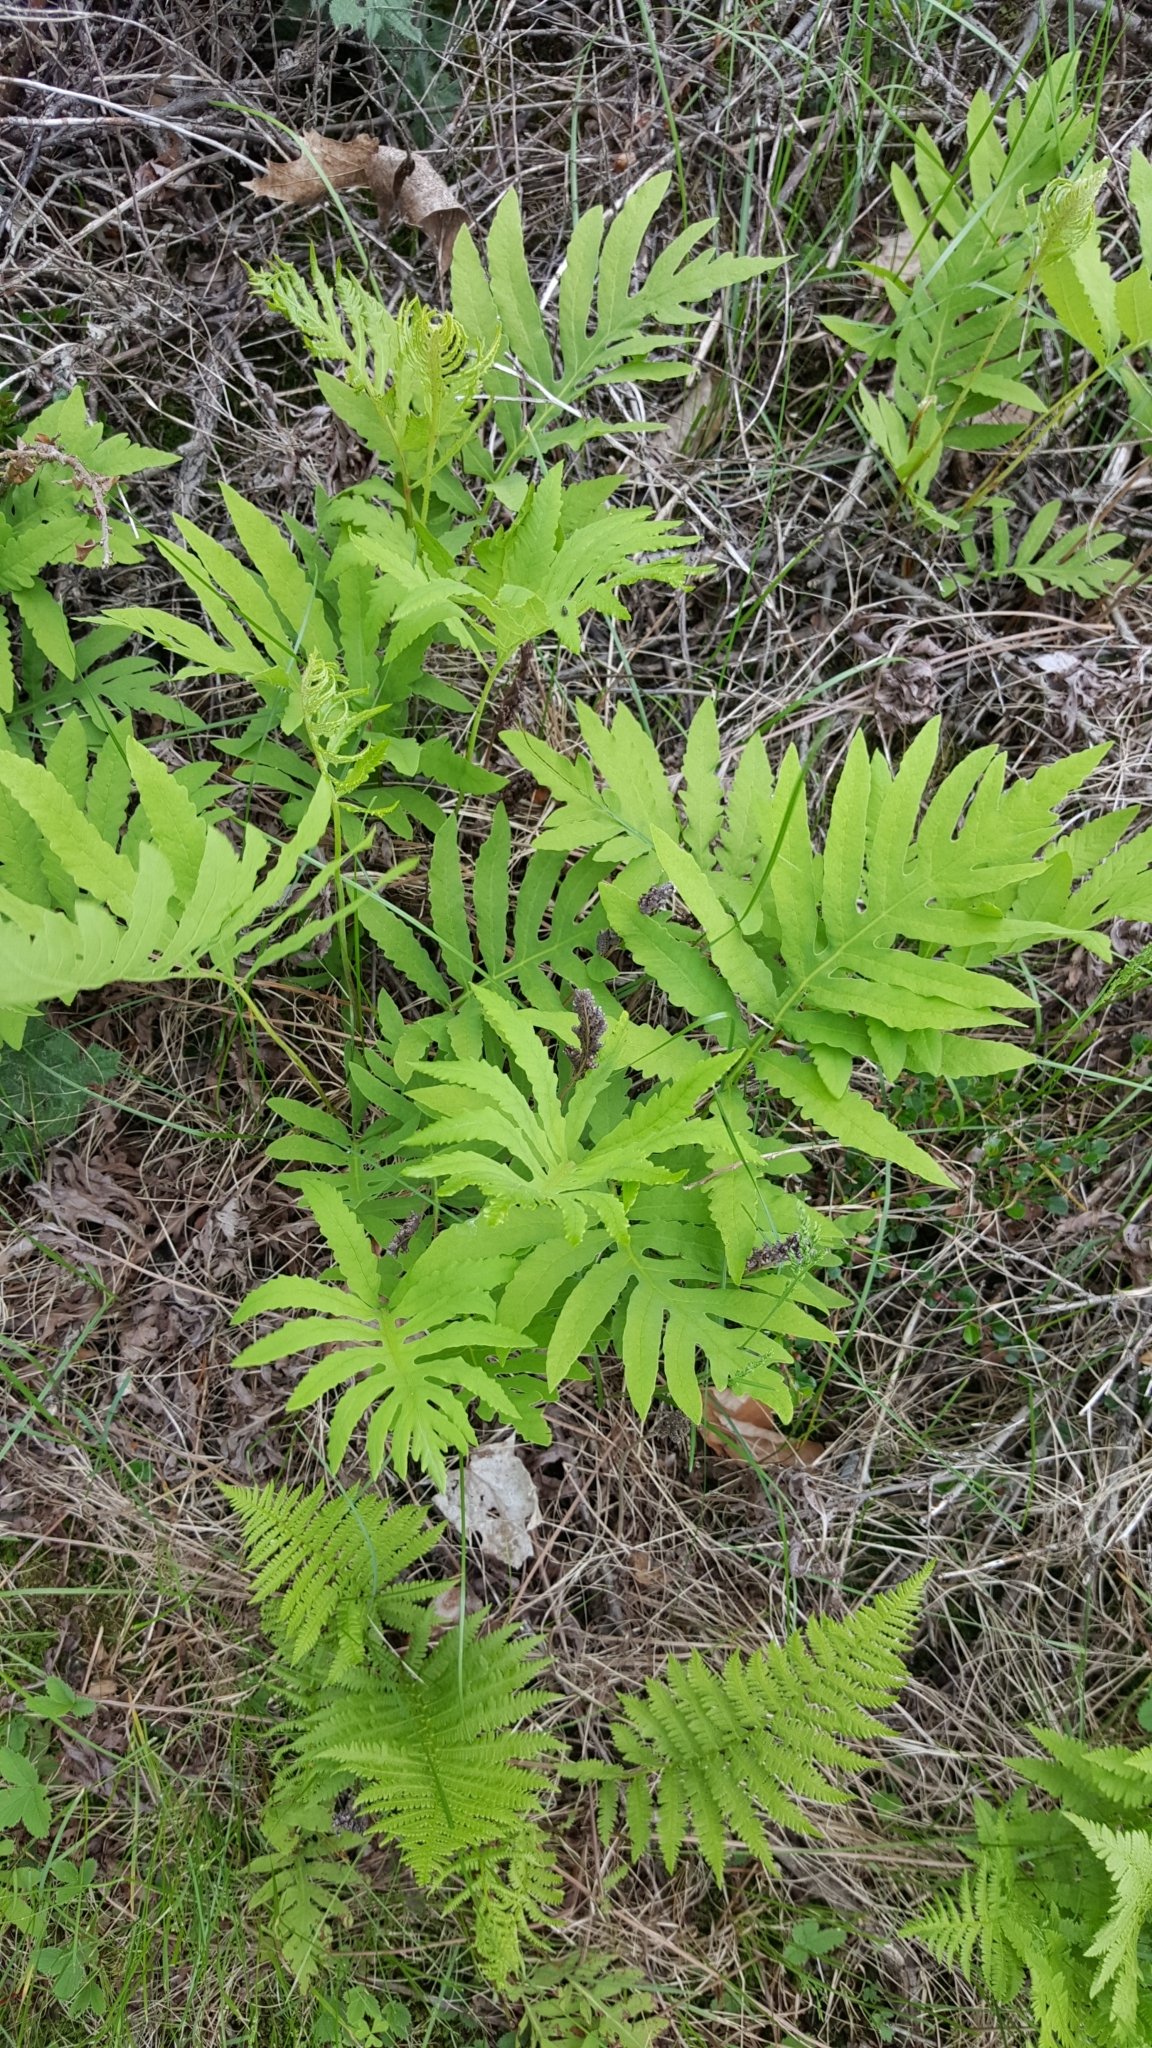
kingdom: Plantae
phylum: Tracheophyta
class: Polypodiopsida
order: Polypodiales
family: Onocleaceae
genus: Onoclea
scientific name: Onoclea sensibilis
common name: Sensitive fern
